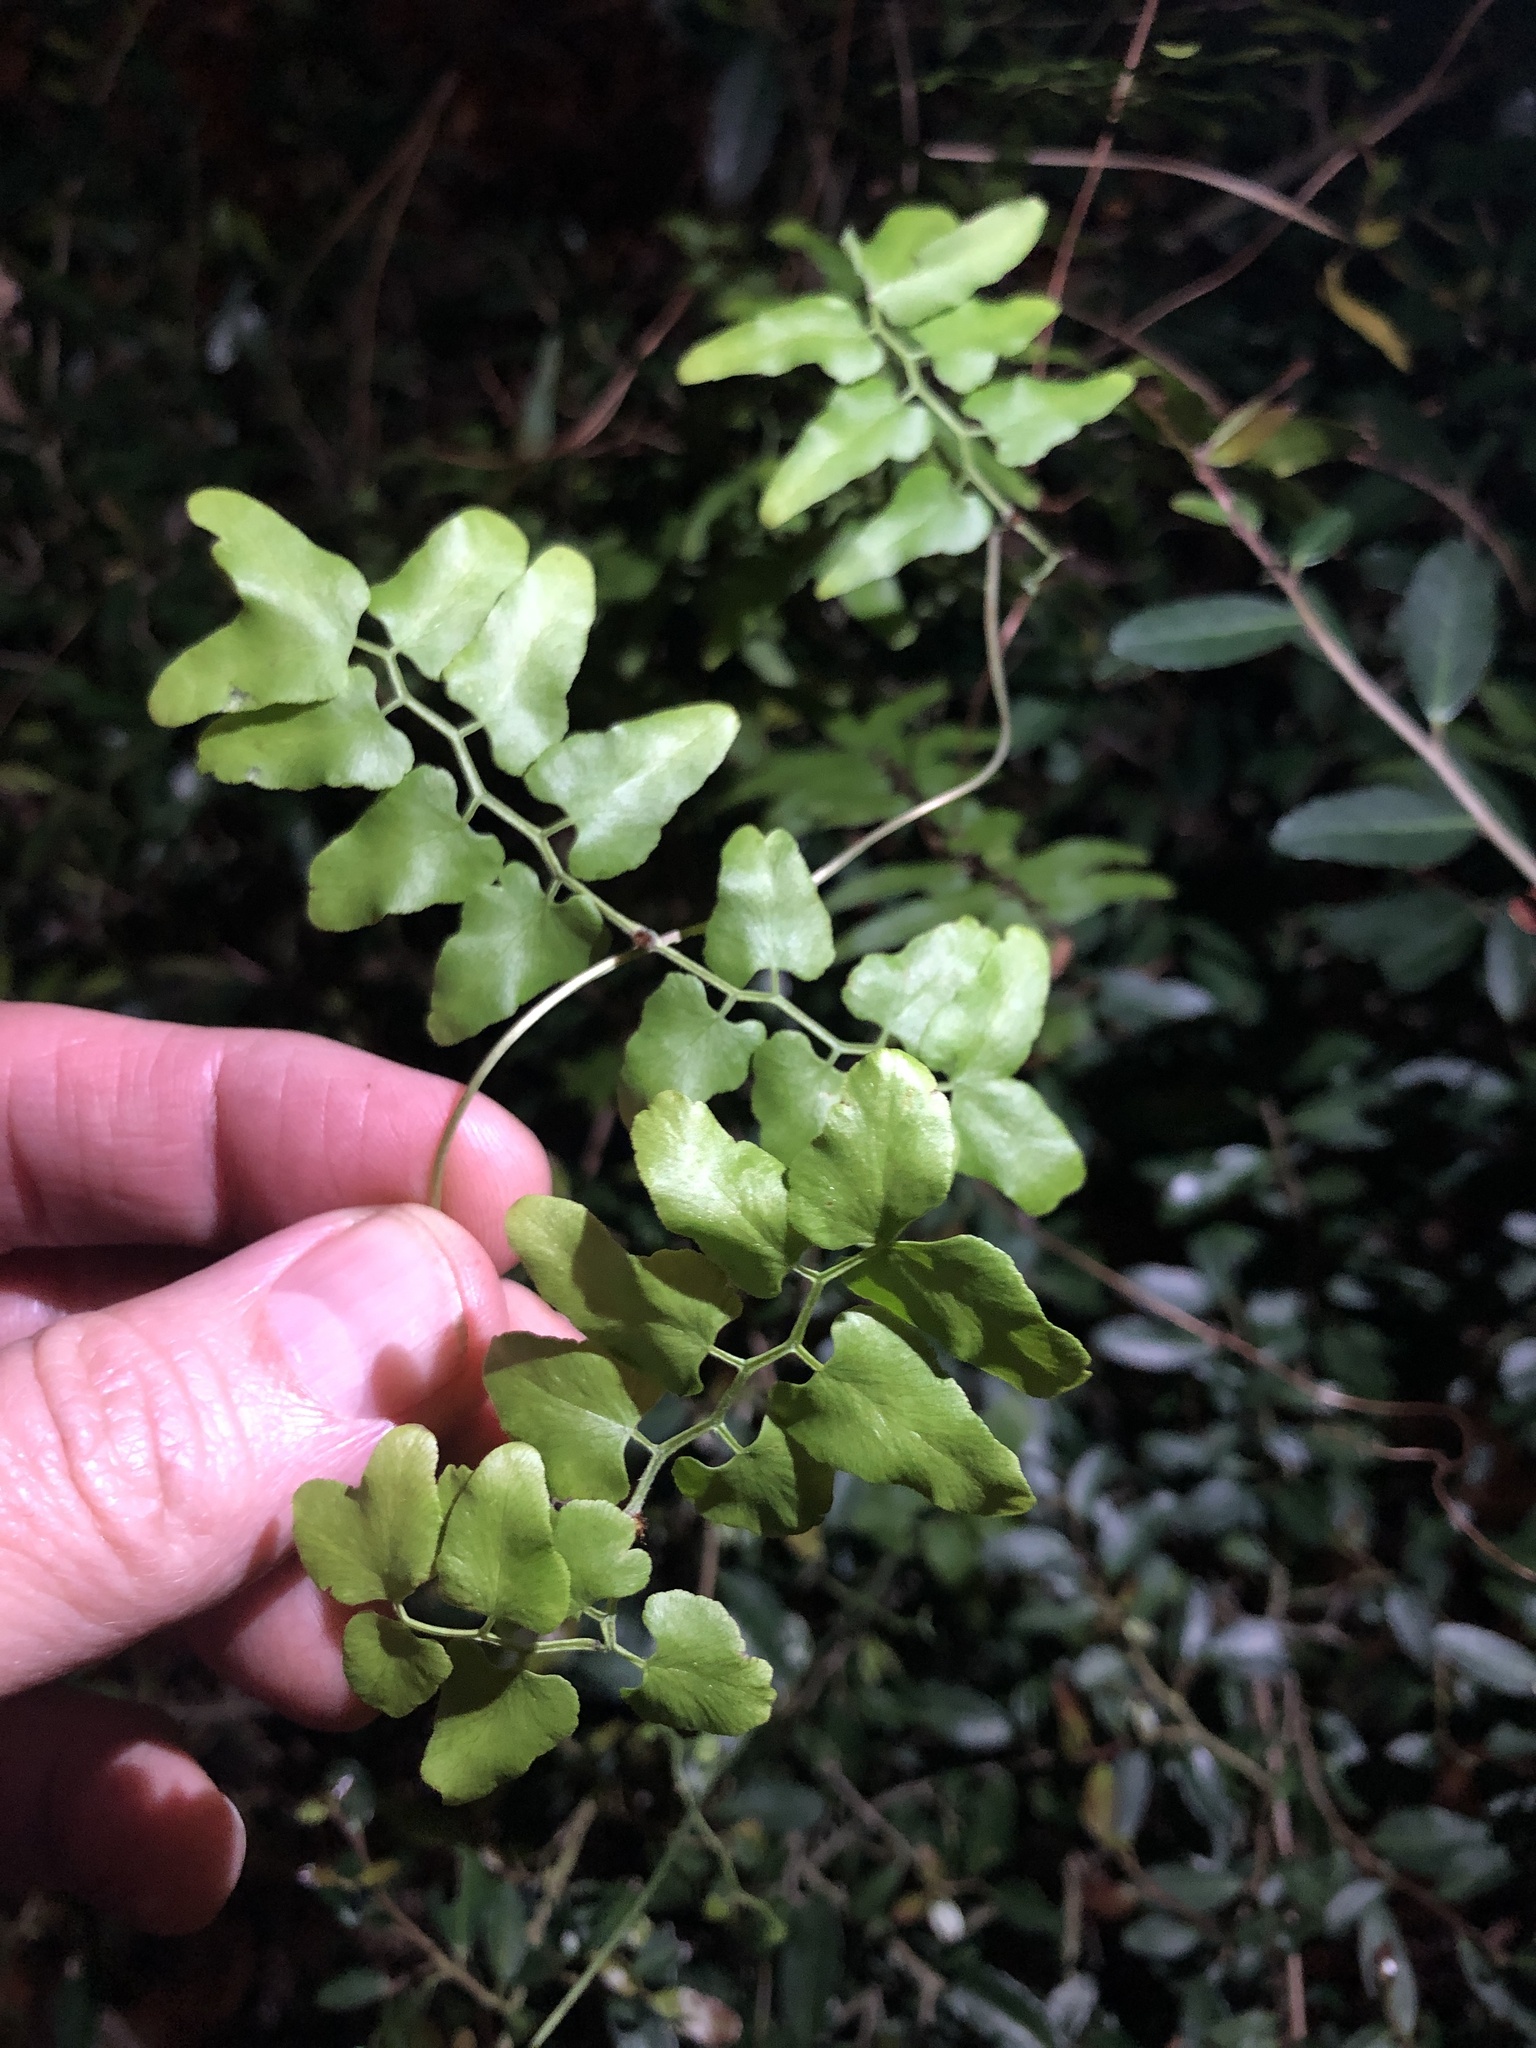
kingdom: Plantae
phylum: Tracheophyta
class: Polypodiopsida
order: Schizaeales
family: Lygodiaceae
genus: Lygodium
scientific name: Lygodium microphyllum
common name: Small-leaf climbing fern
